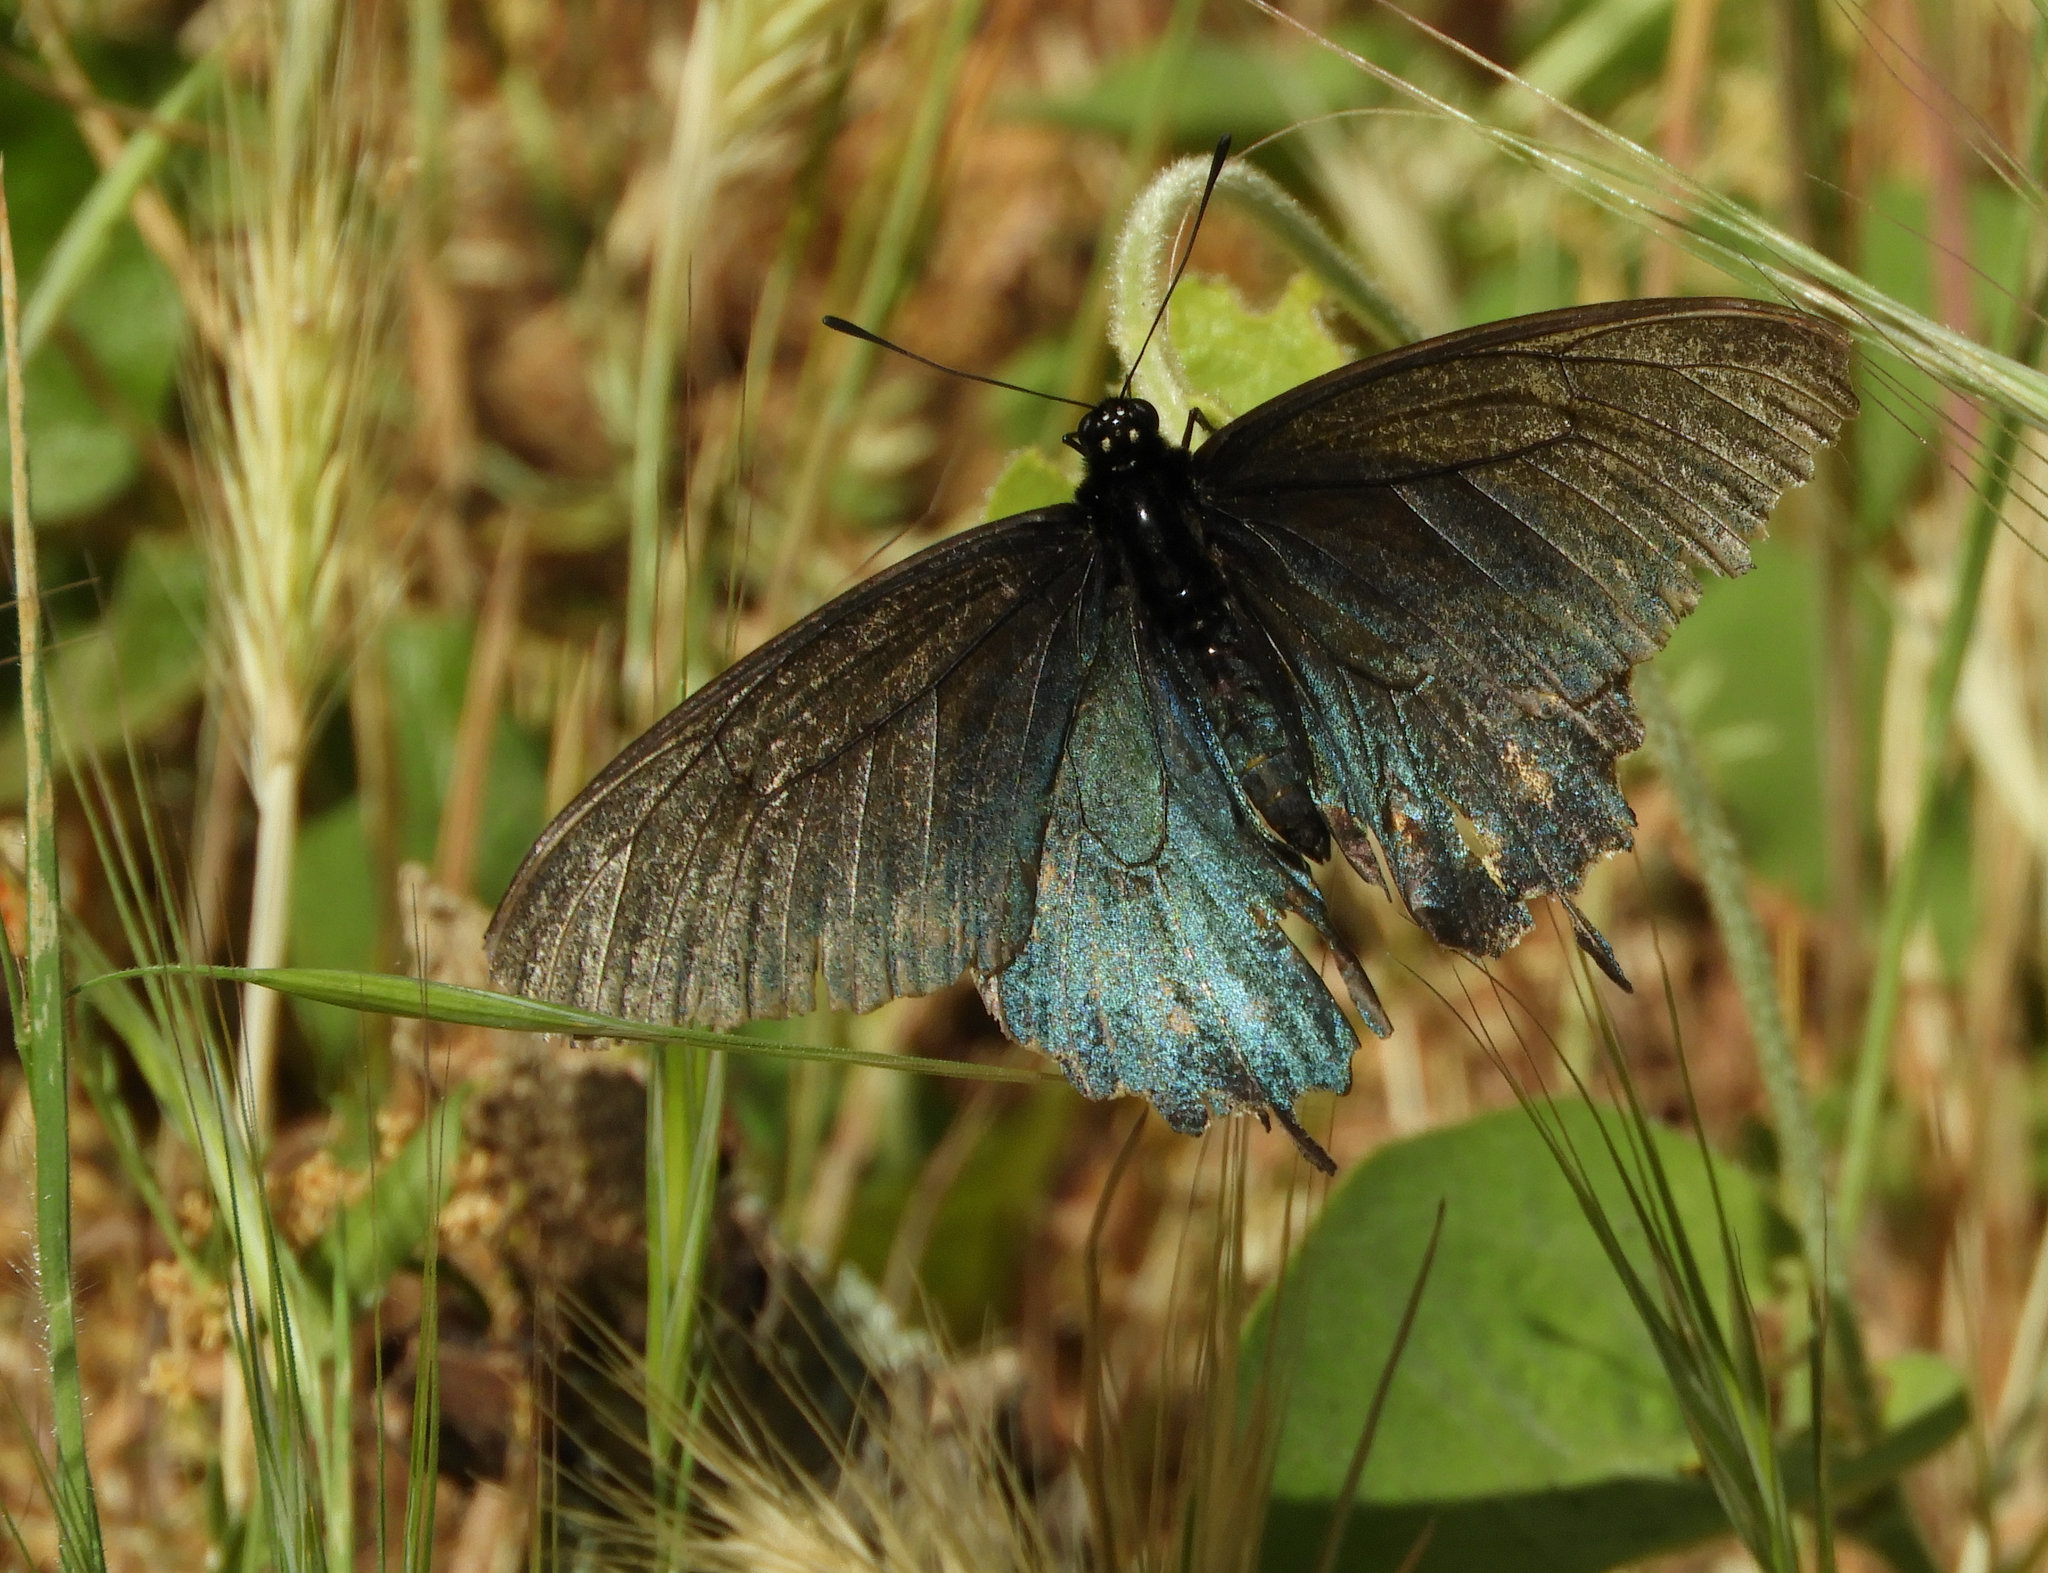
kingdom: Animalia
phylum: Arthropoda
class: Insecta
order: Lepidoptera
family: Papilionidae
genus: Battus
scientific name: Battus philenor
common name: Pipevine swallowtail
